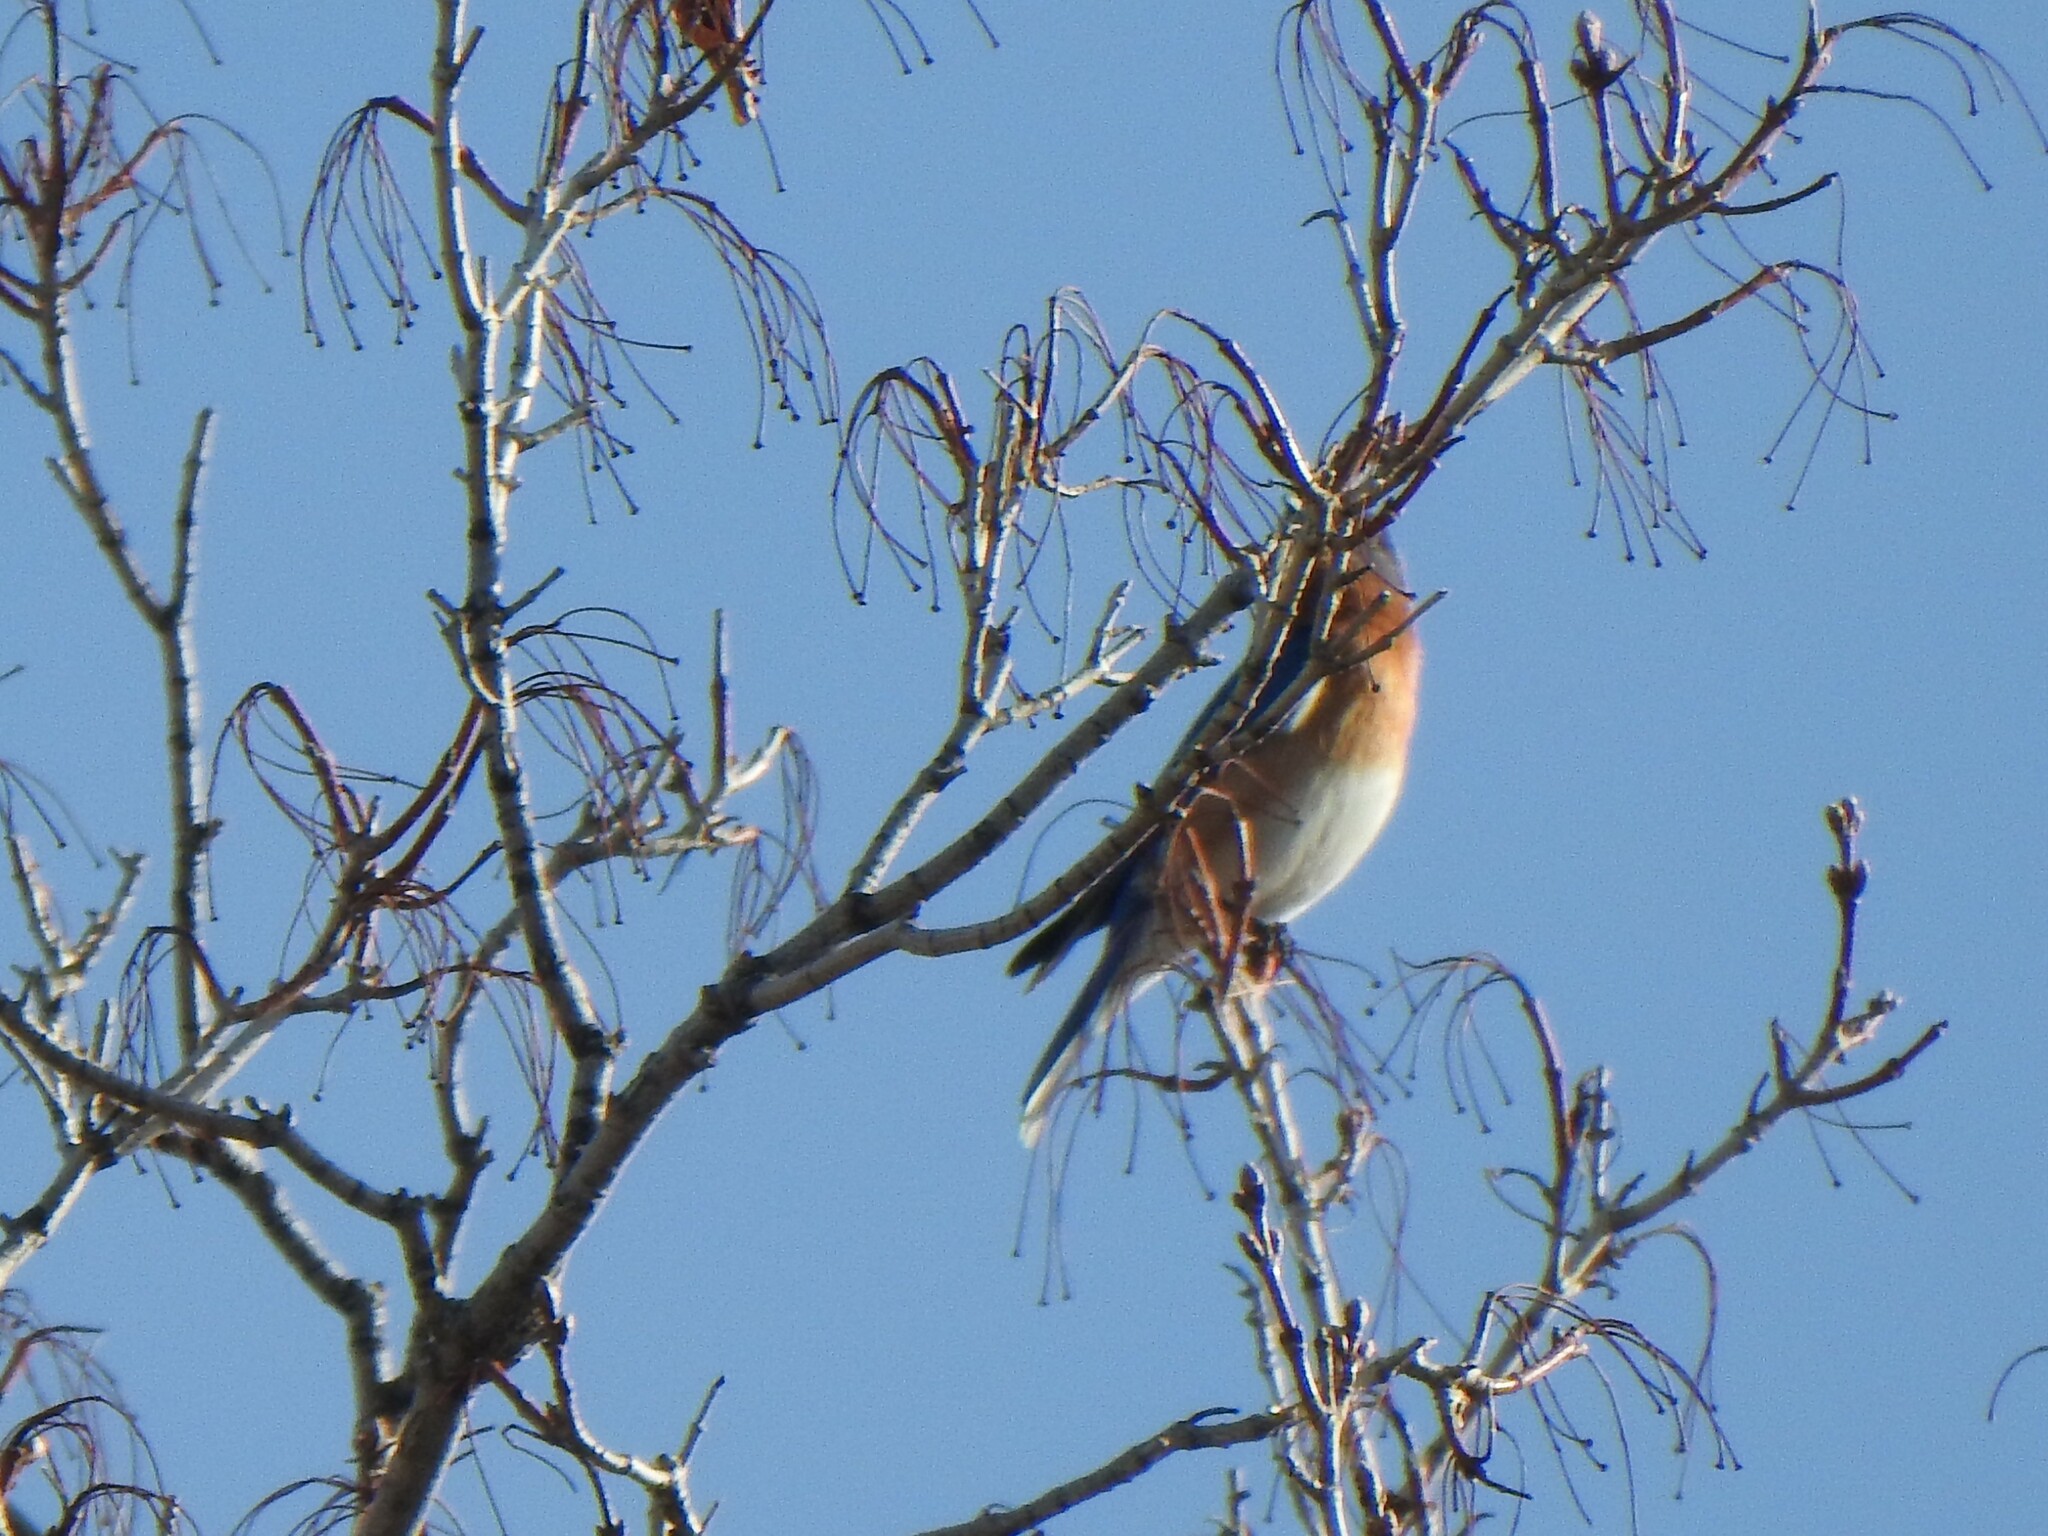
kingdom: Animalia
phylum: Chordata
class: Aves
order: Passeriformes
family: Turdidae
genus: Sialia
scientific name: Sialia sialis
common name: Eastern bluebird
